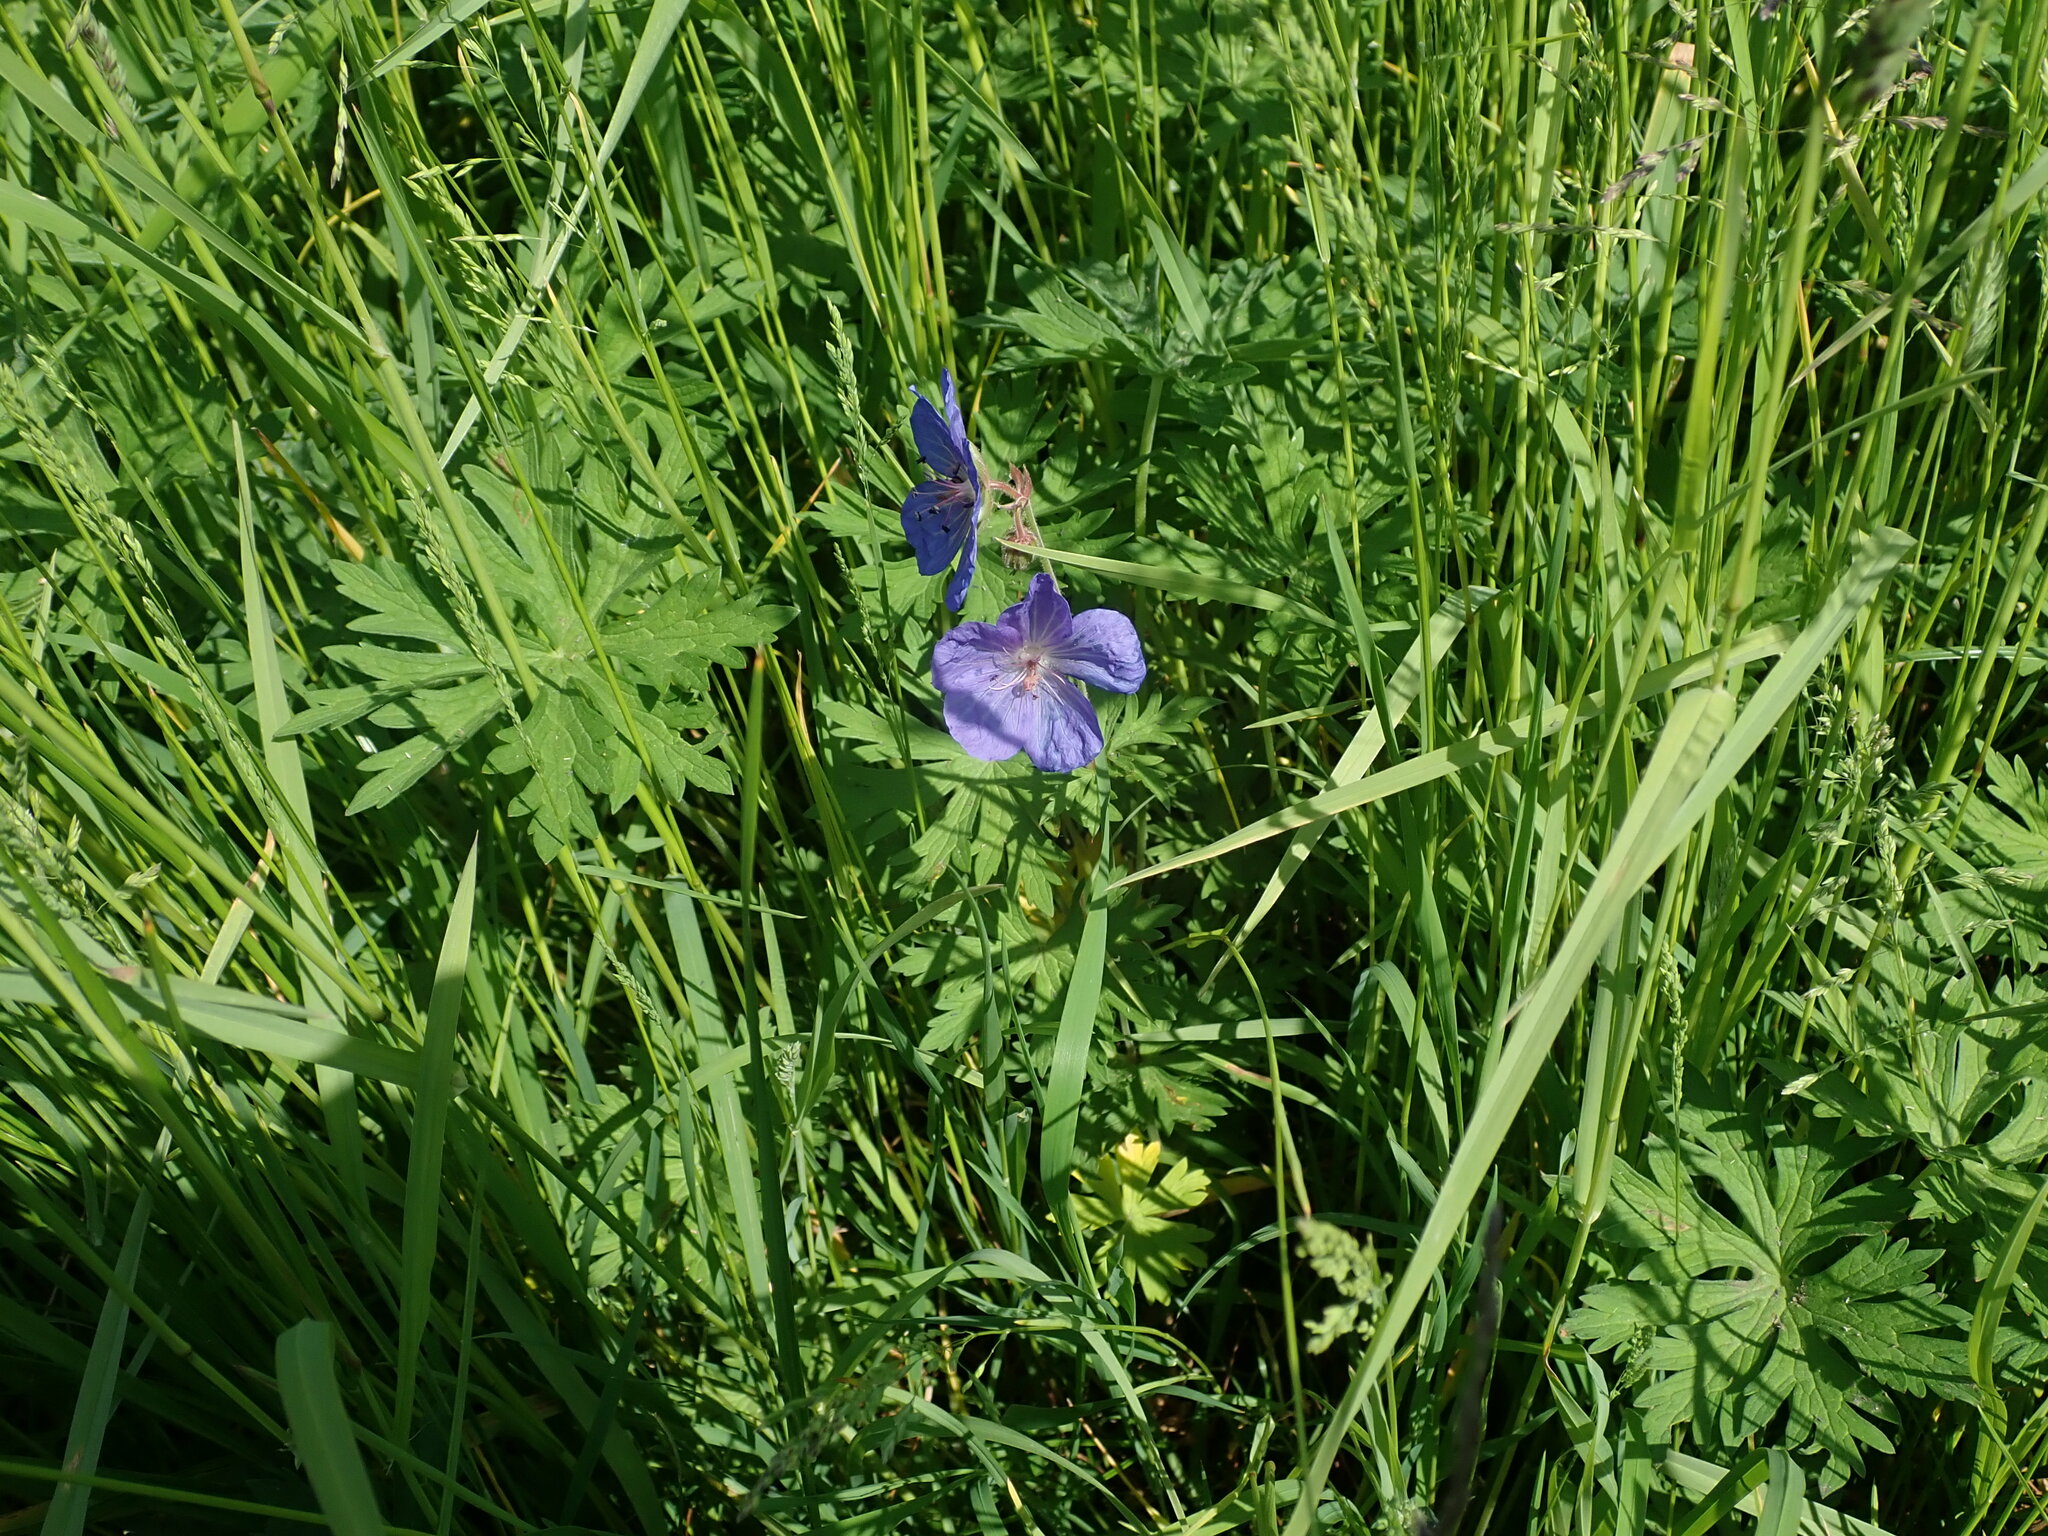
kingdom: Plantae
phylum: Tracheophyta
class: Magnoliopsida
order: Geraniales
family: Geraniaceae
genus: Geranium
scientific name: Geranium pratense
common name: Meadow crane's-bill
